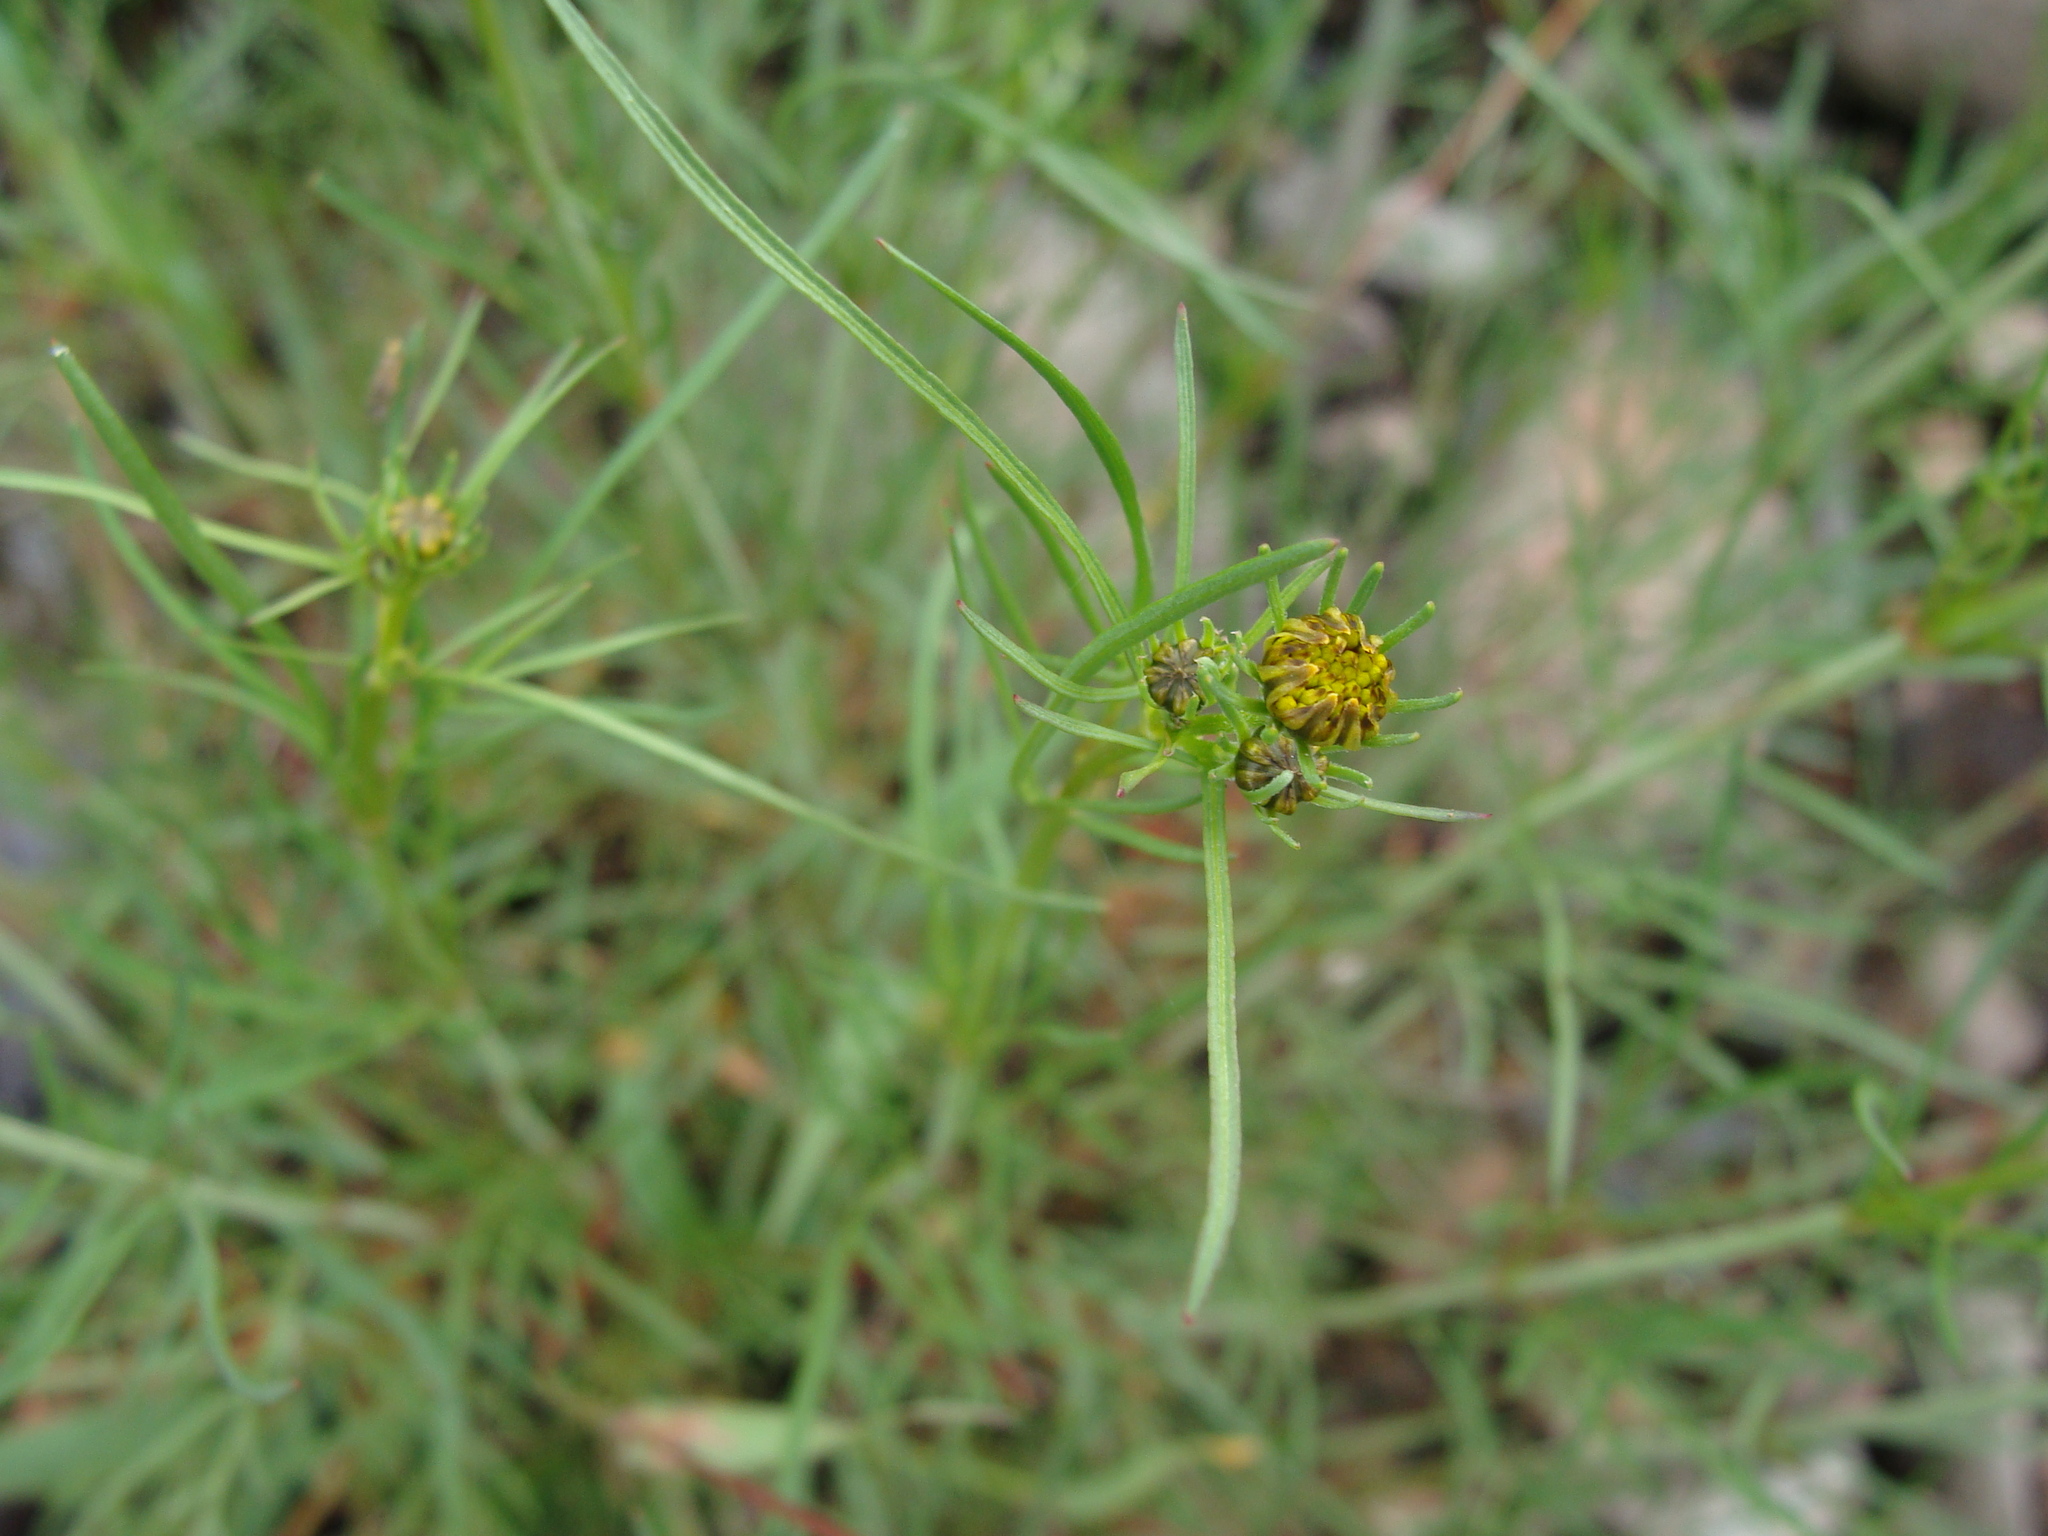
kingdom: Plantae
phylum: Tracheophyta
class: Magnoliopsida
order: Asterales
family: Asteraceae
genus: Bidens
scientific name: Bidens aurea
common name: Arizona beggar-ticks
